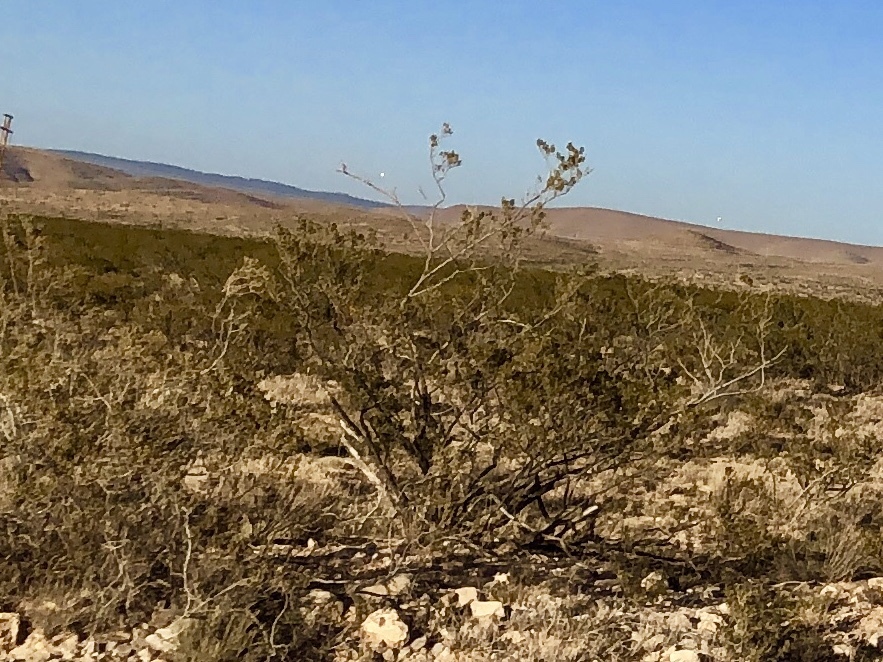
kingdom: Plantae
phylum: Tracheophyta
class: Magnoliopsida
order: Zygophyllales
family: Zygophyllaceae
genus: Larrea
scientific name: Larrea tridentata
